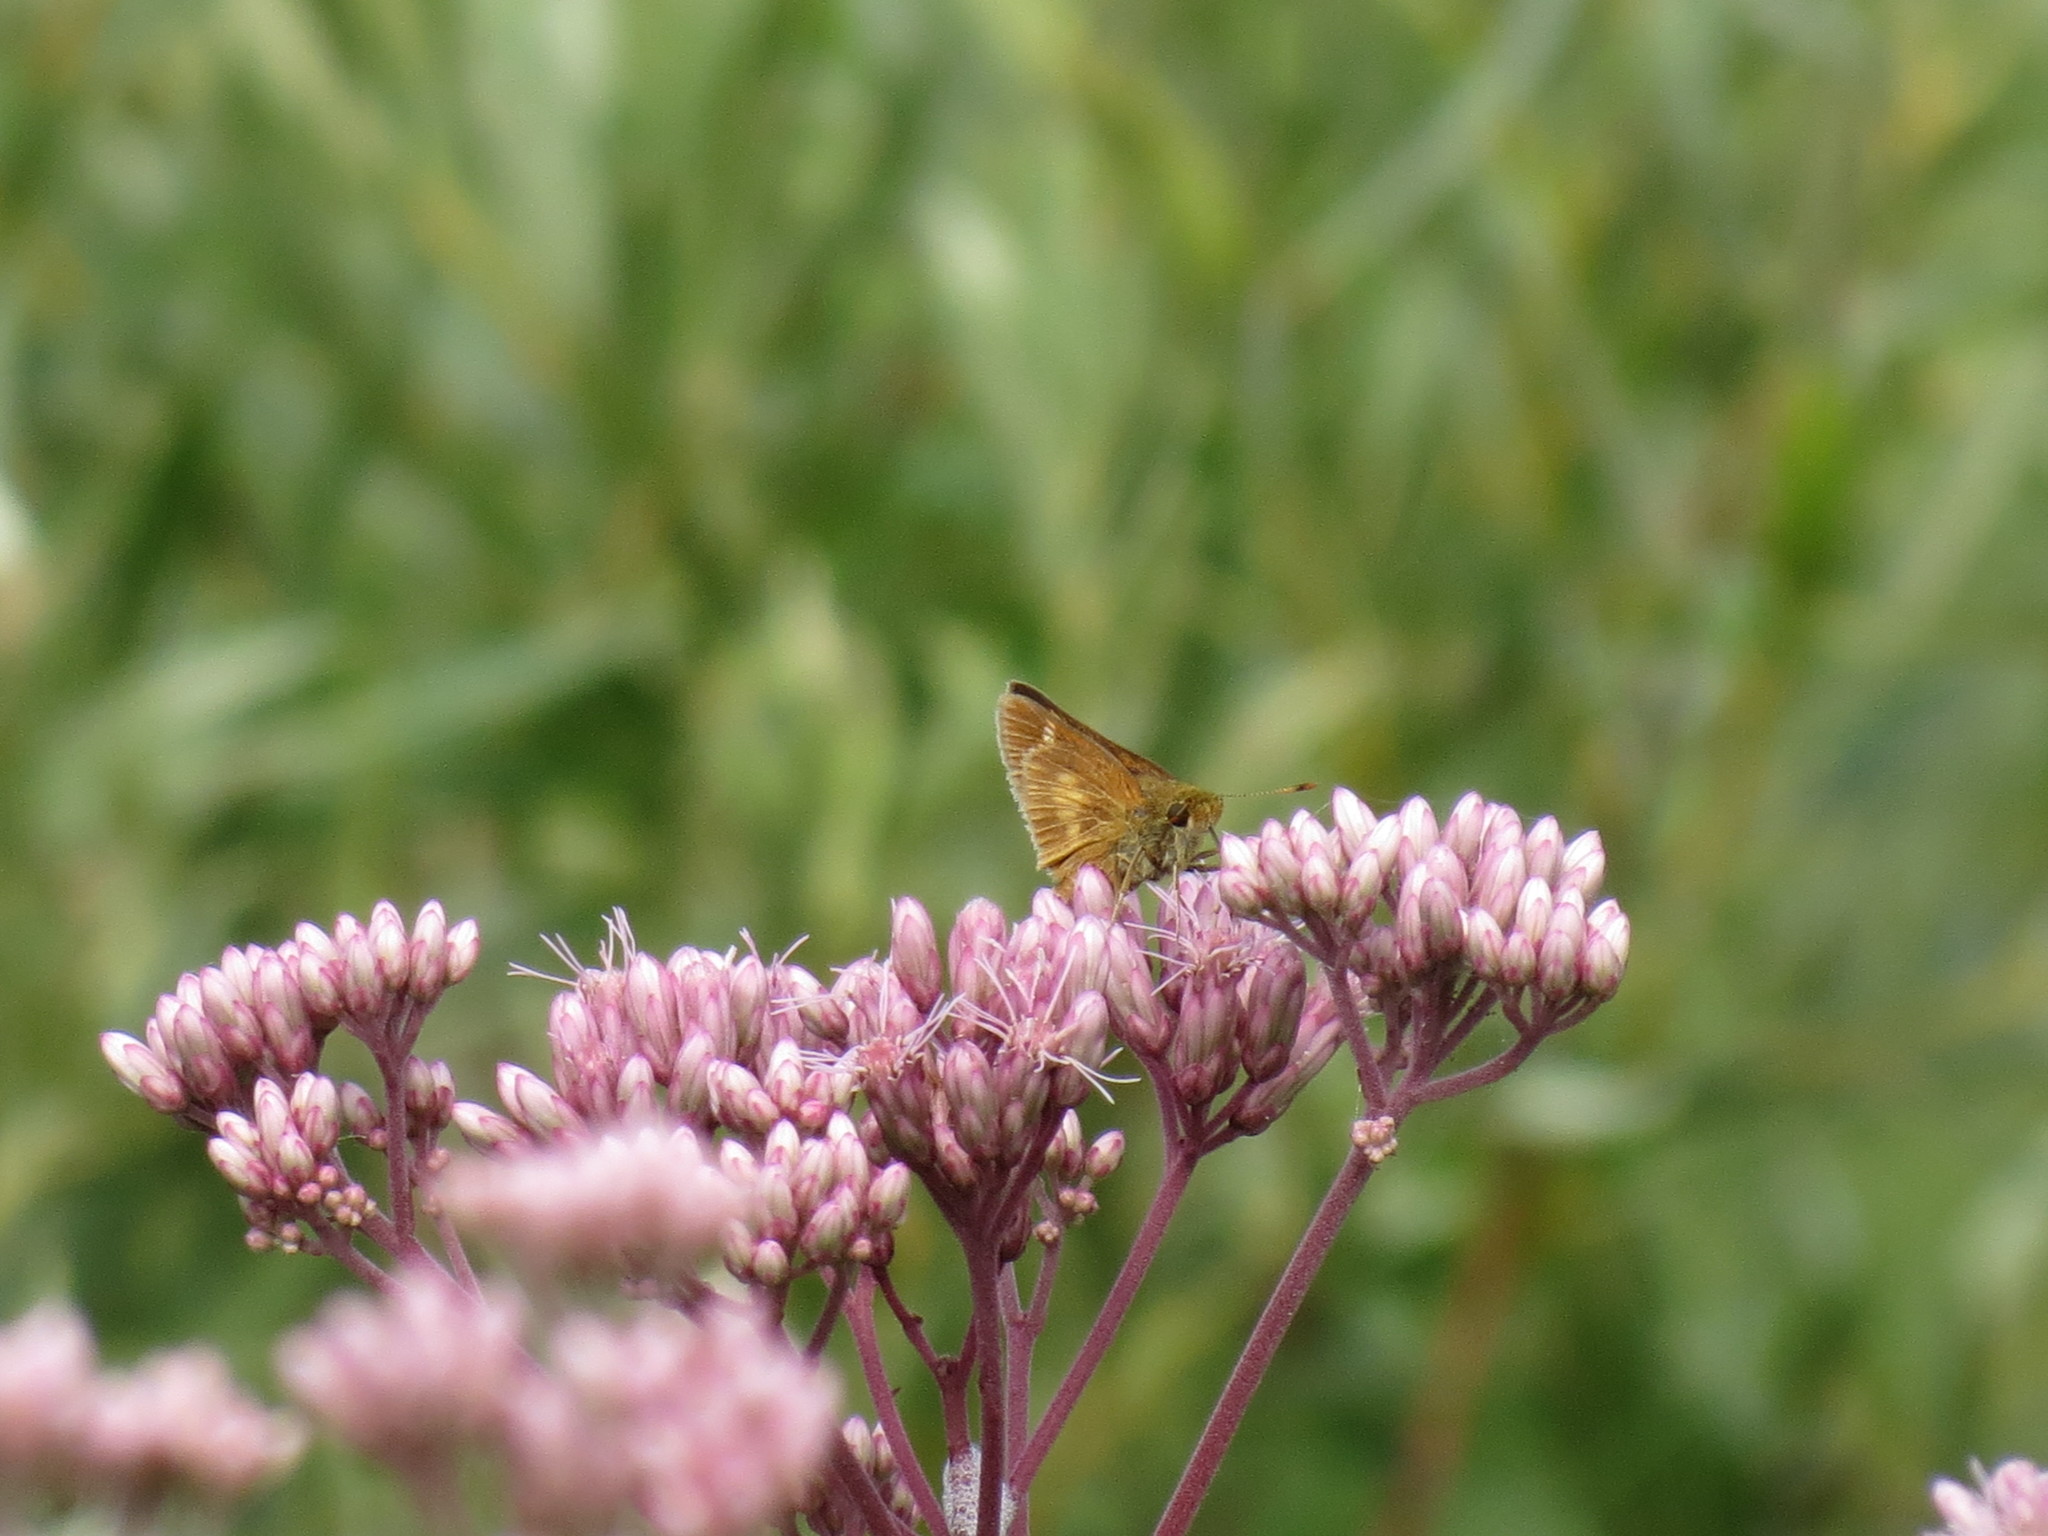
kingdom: Animalia
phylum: Arthropoda
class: Insecta
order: Lepidoptera
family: Hesperiidae
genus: Euphyes
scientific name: Euphyes conspicua
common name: Black dash
